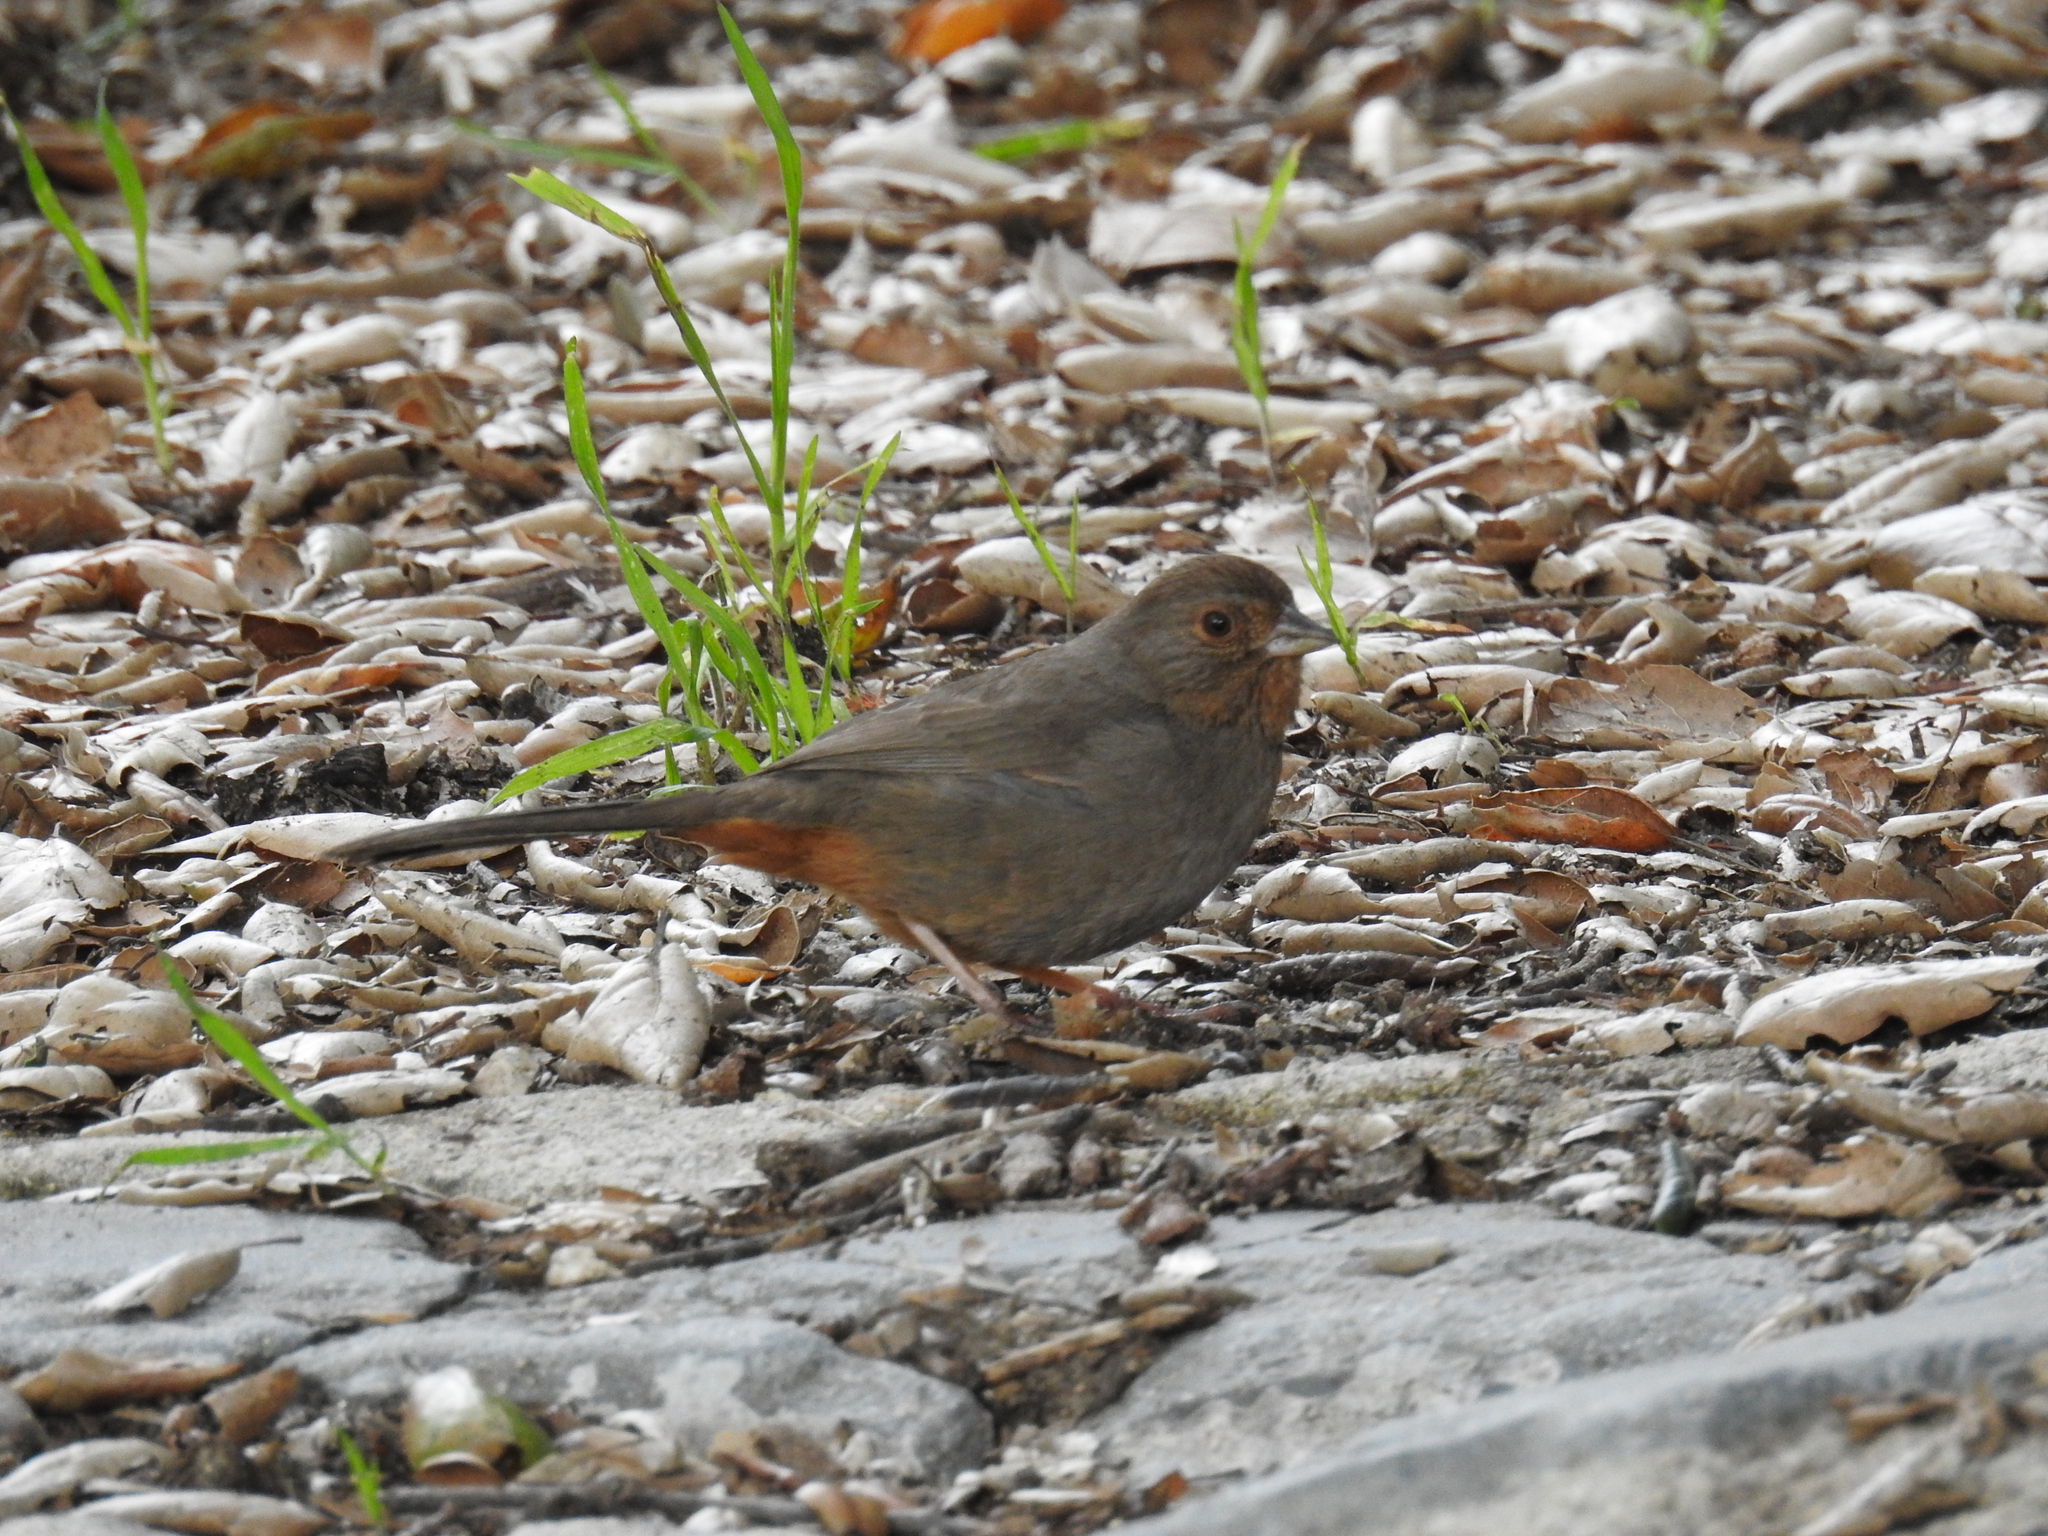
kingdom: Animalia
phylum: Chordata
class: Aves
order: Passeriformes
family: Passerellidae
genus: Melozone
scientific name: Melozone crissalis
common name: California towhee
